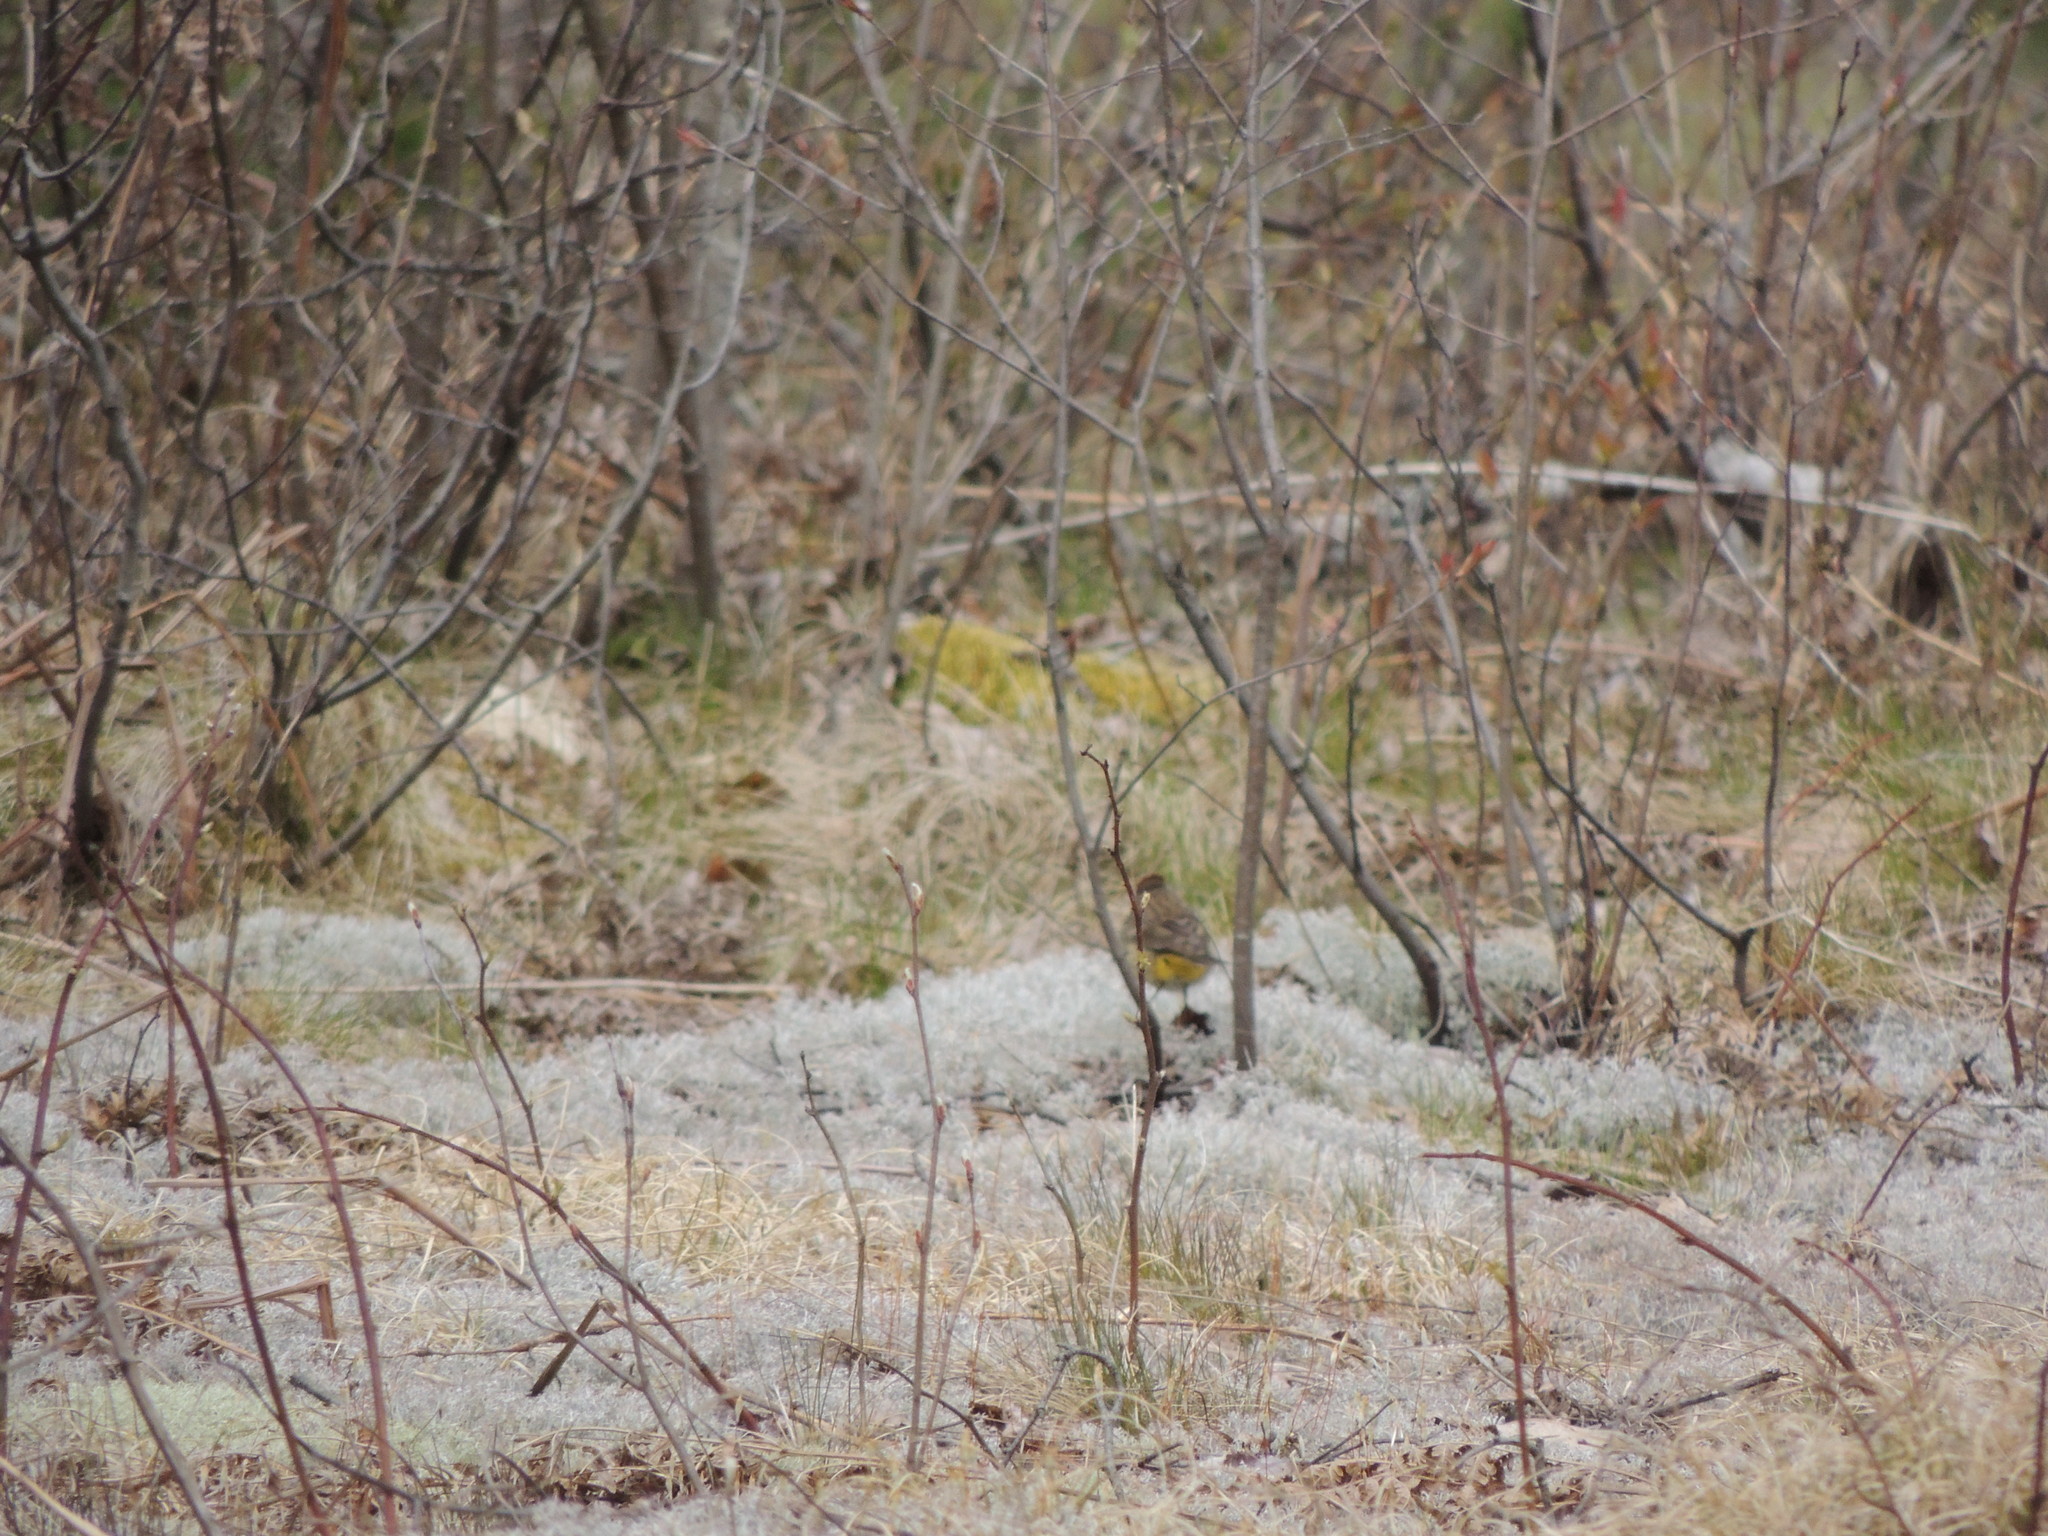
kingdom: Animalia
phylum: Chordata
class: Aves
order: Passeriformes
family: Parulidae
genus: Setophaga
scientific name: Setophaga palmarum
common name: Palm warbler
